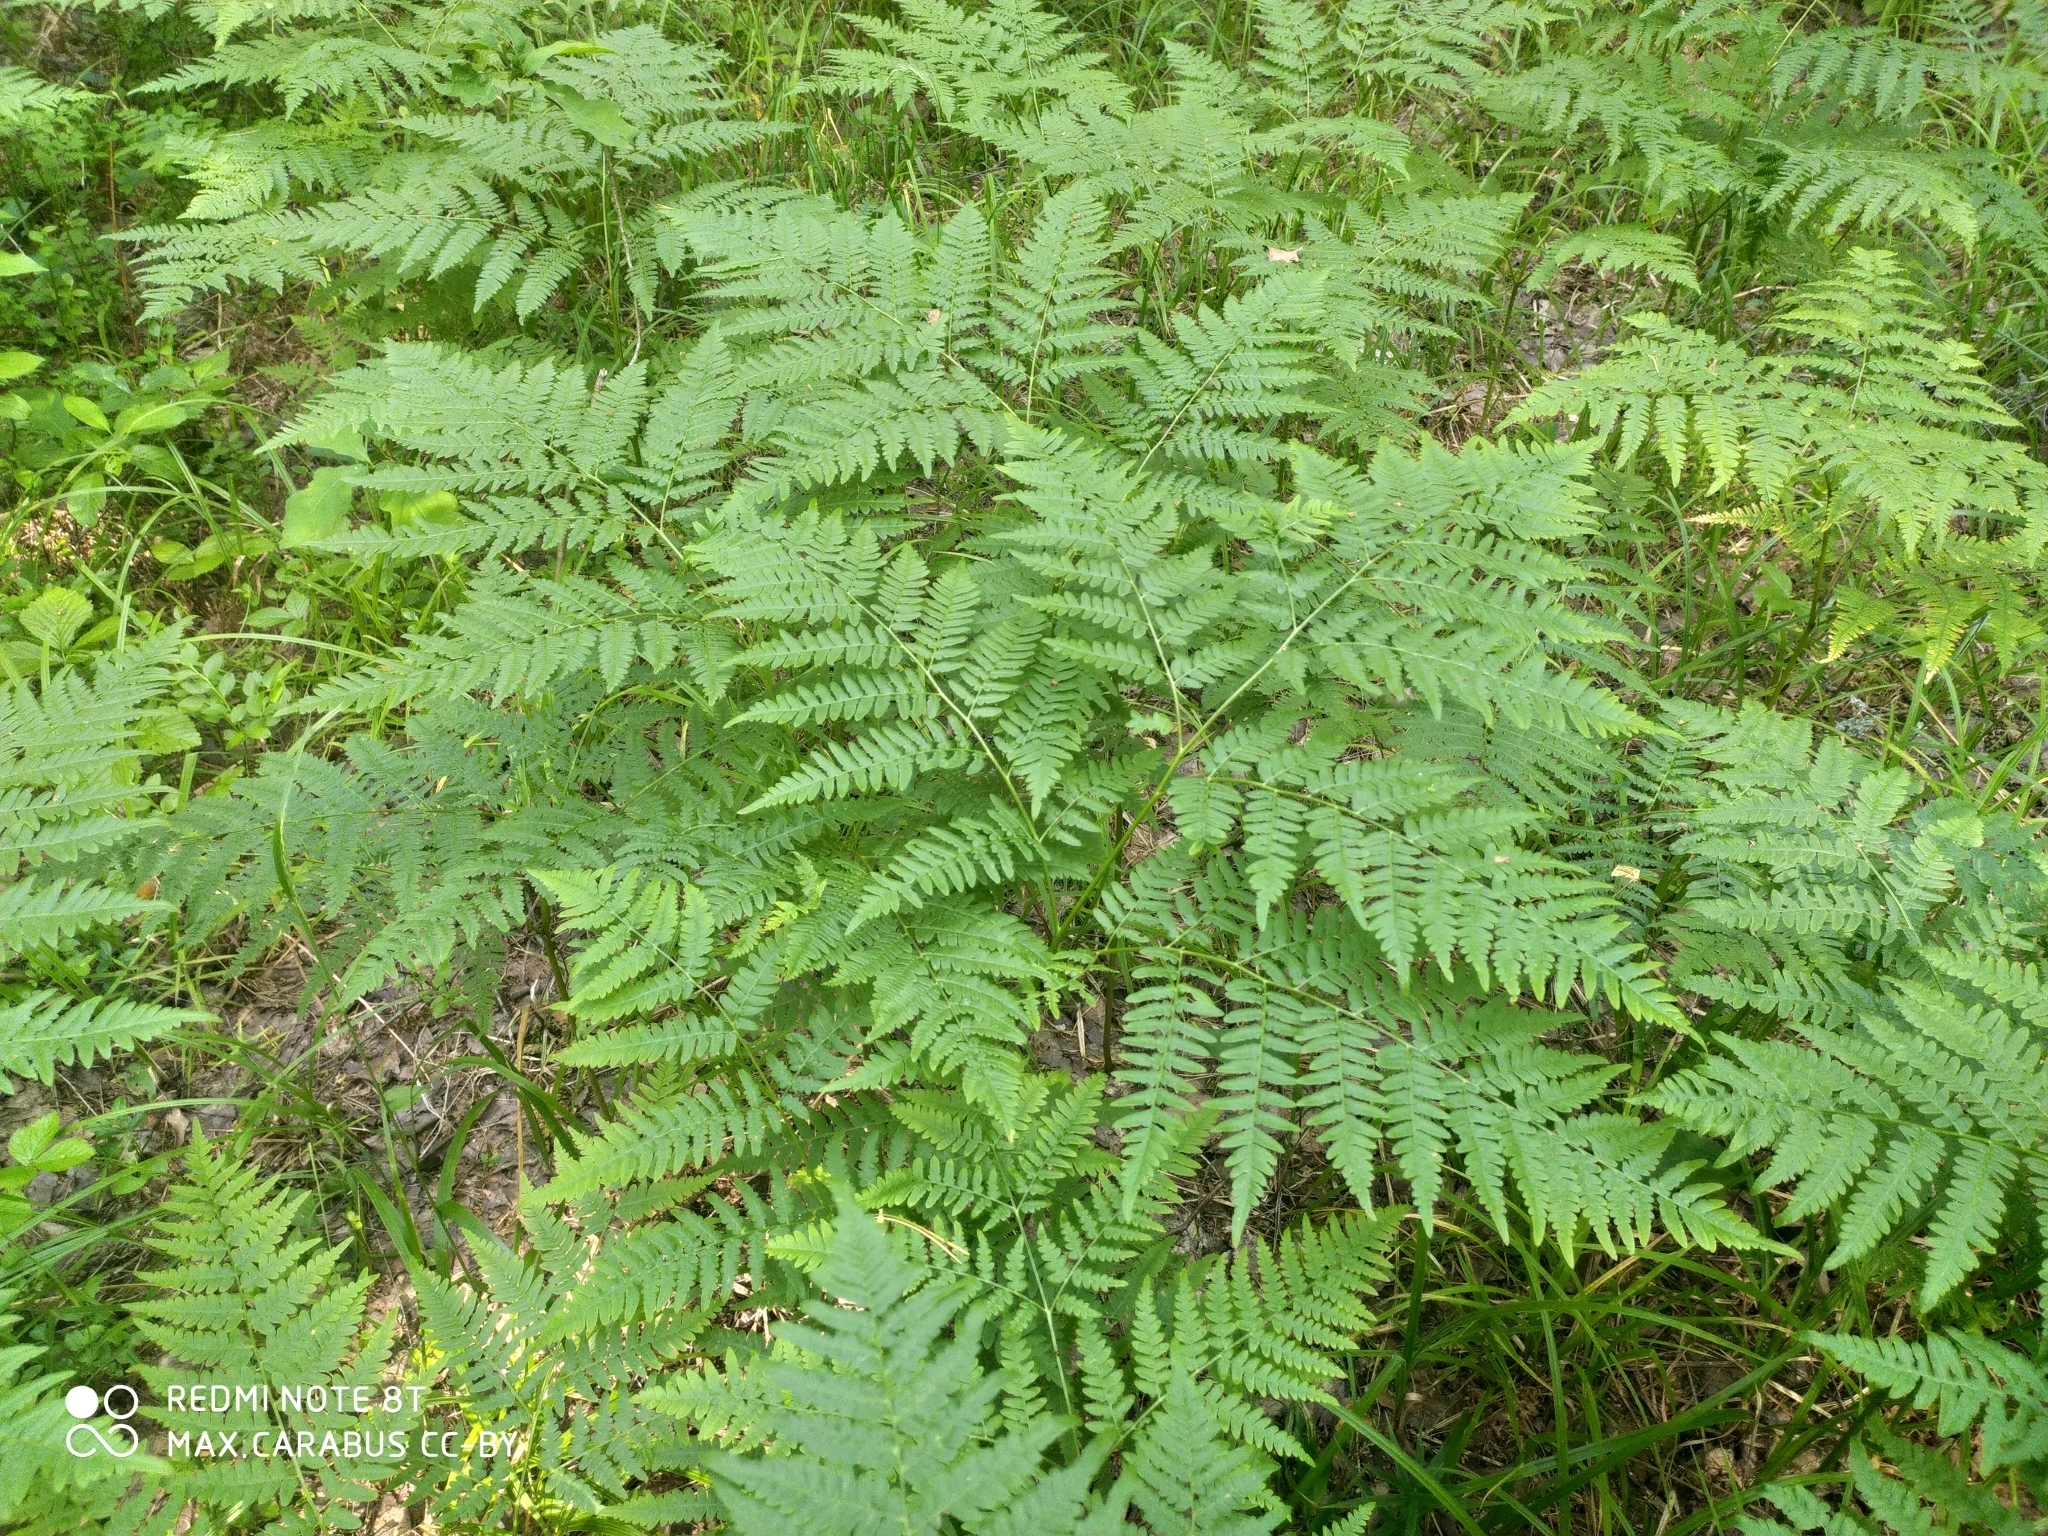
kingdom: Plantae
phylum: Tracheophyta
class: Polypodiopsida
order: Polypodiales
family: Dennstaedtiaceae
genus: Pteridium
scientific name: Pteridium aquilinum
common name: Bracken
